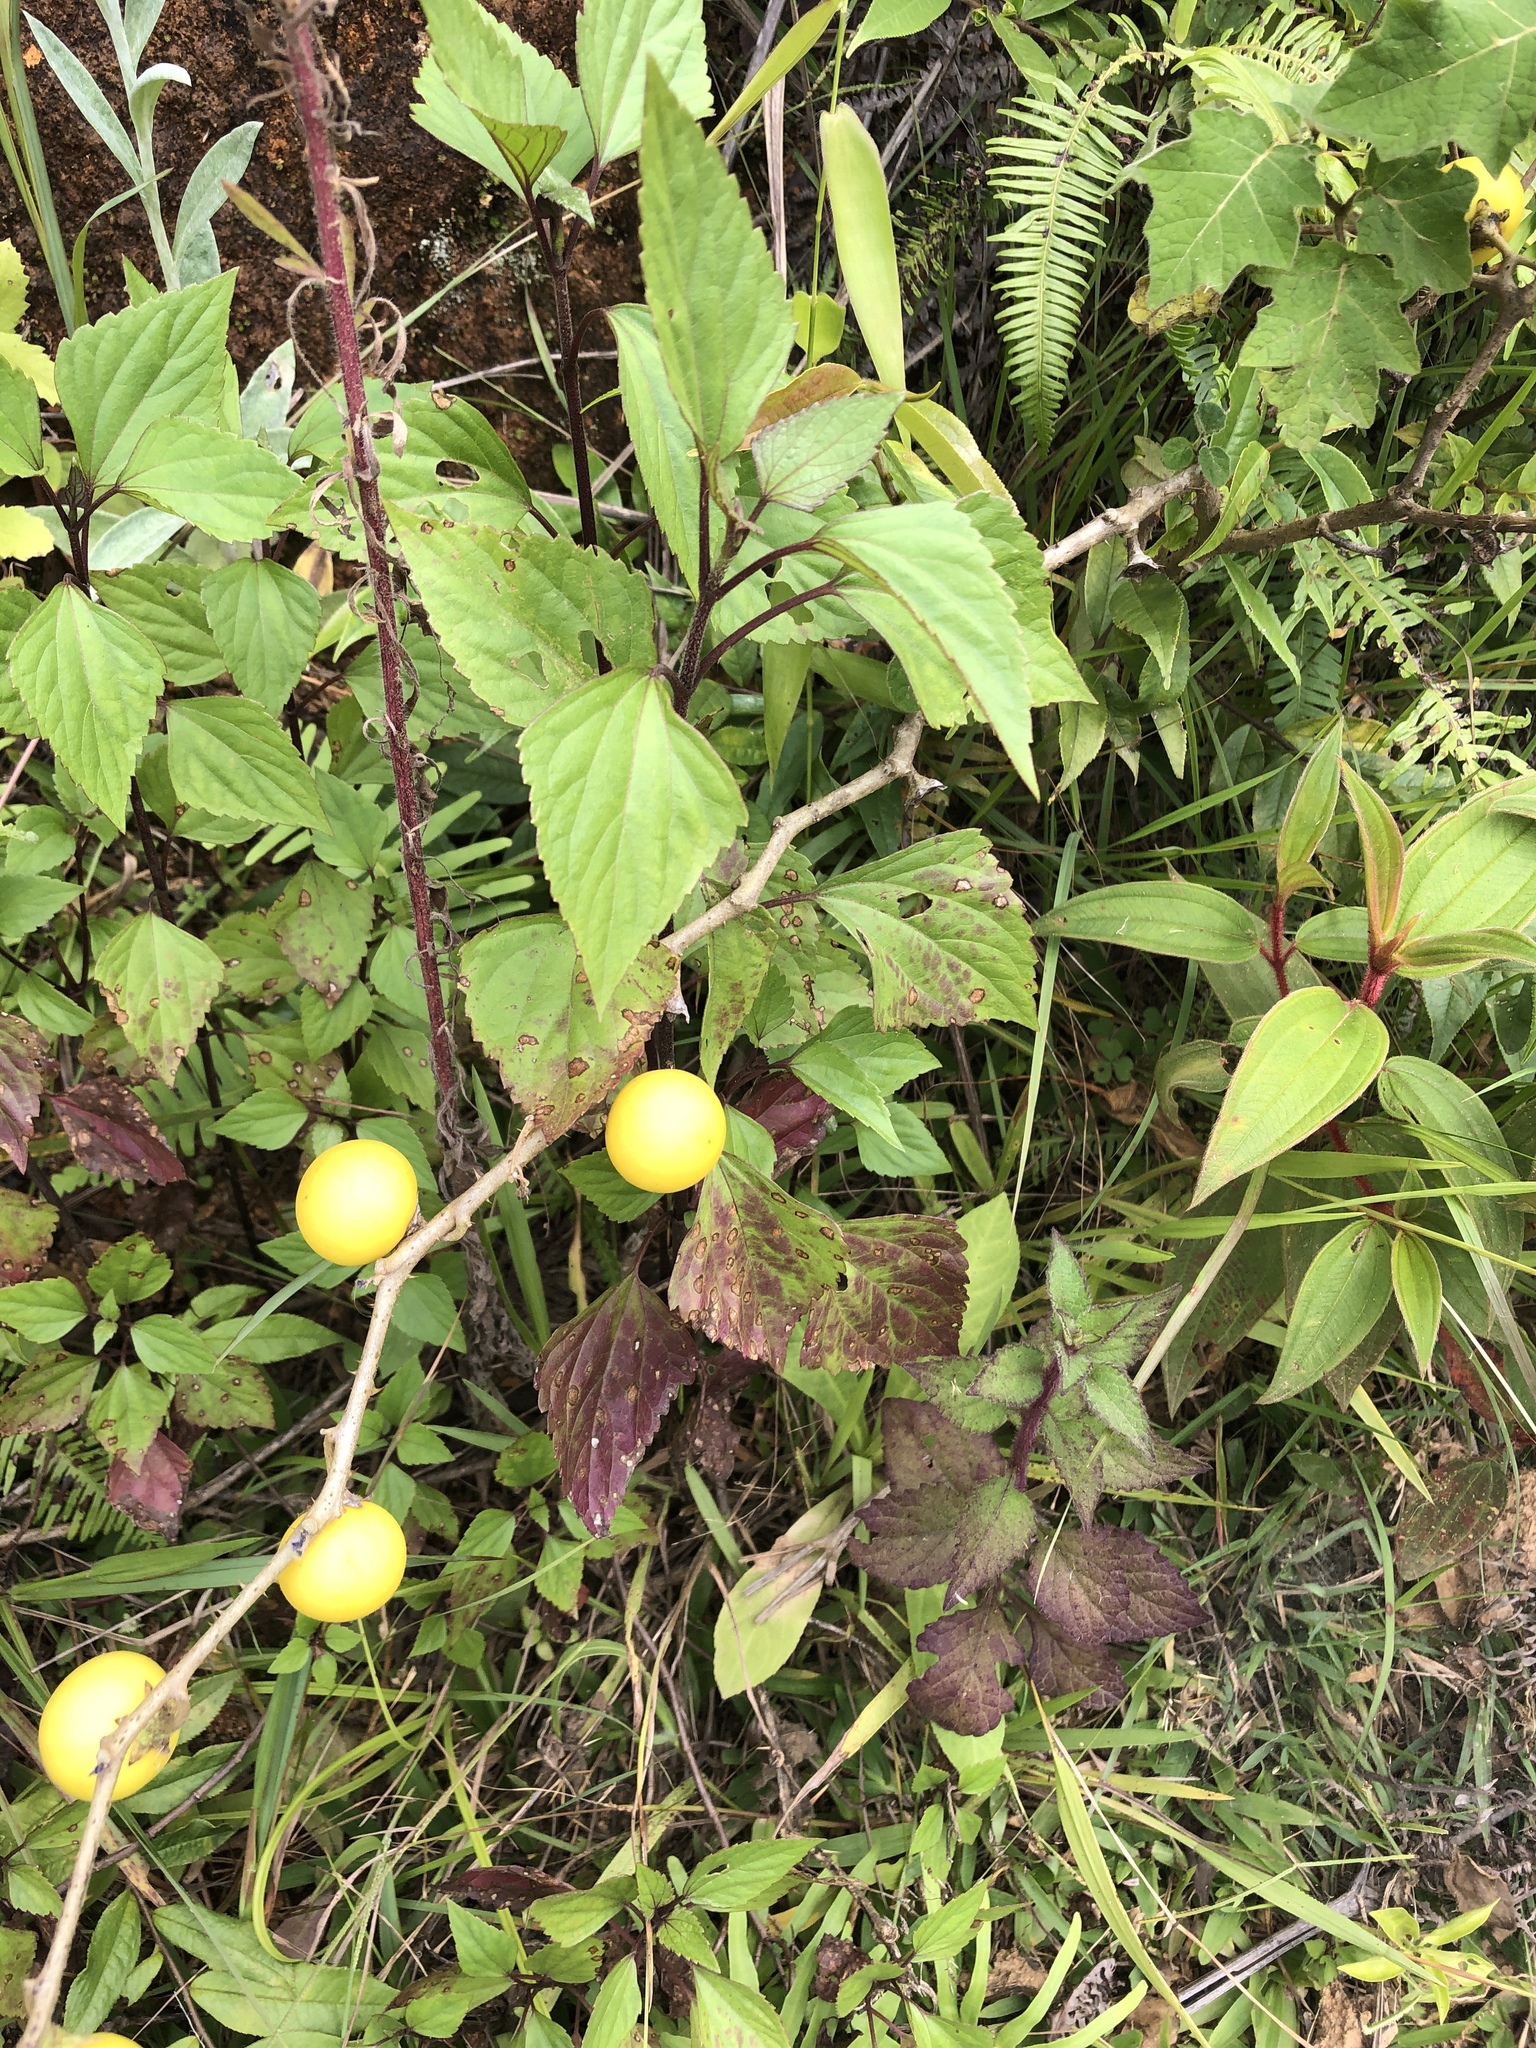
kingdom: Plantae
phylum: Tracheophyta
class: Magnoliopsida
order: Solanales
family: Solanaceae
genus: Solanum
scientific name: Solanum viarum
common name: Tropical soda apple
